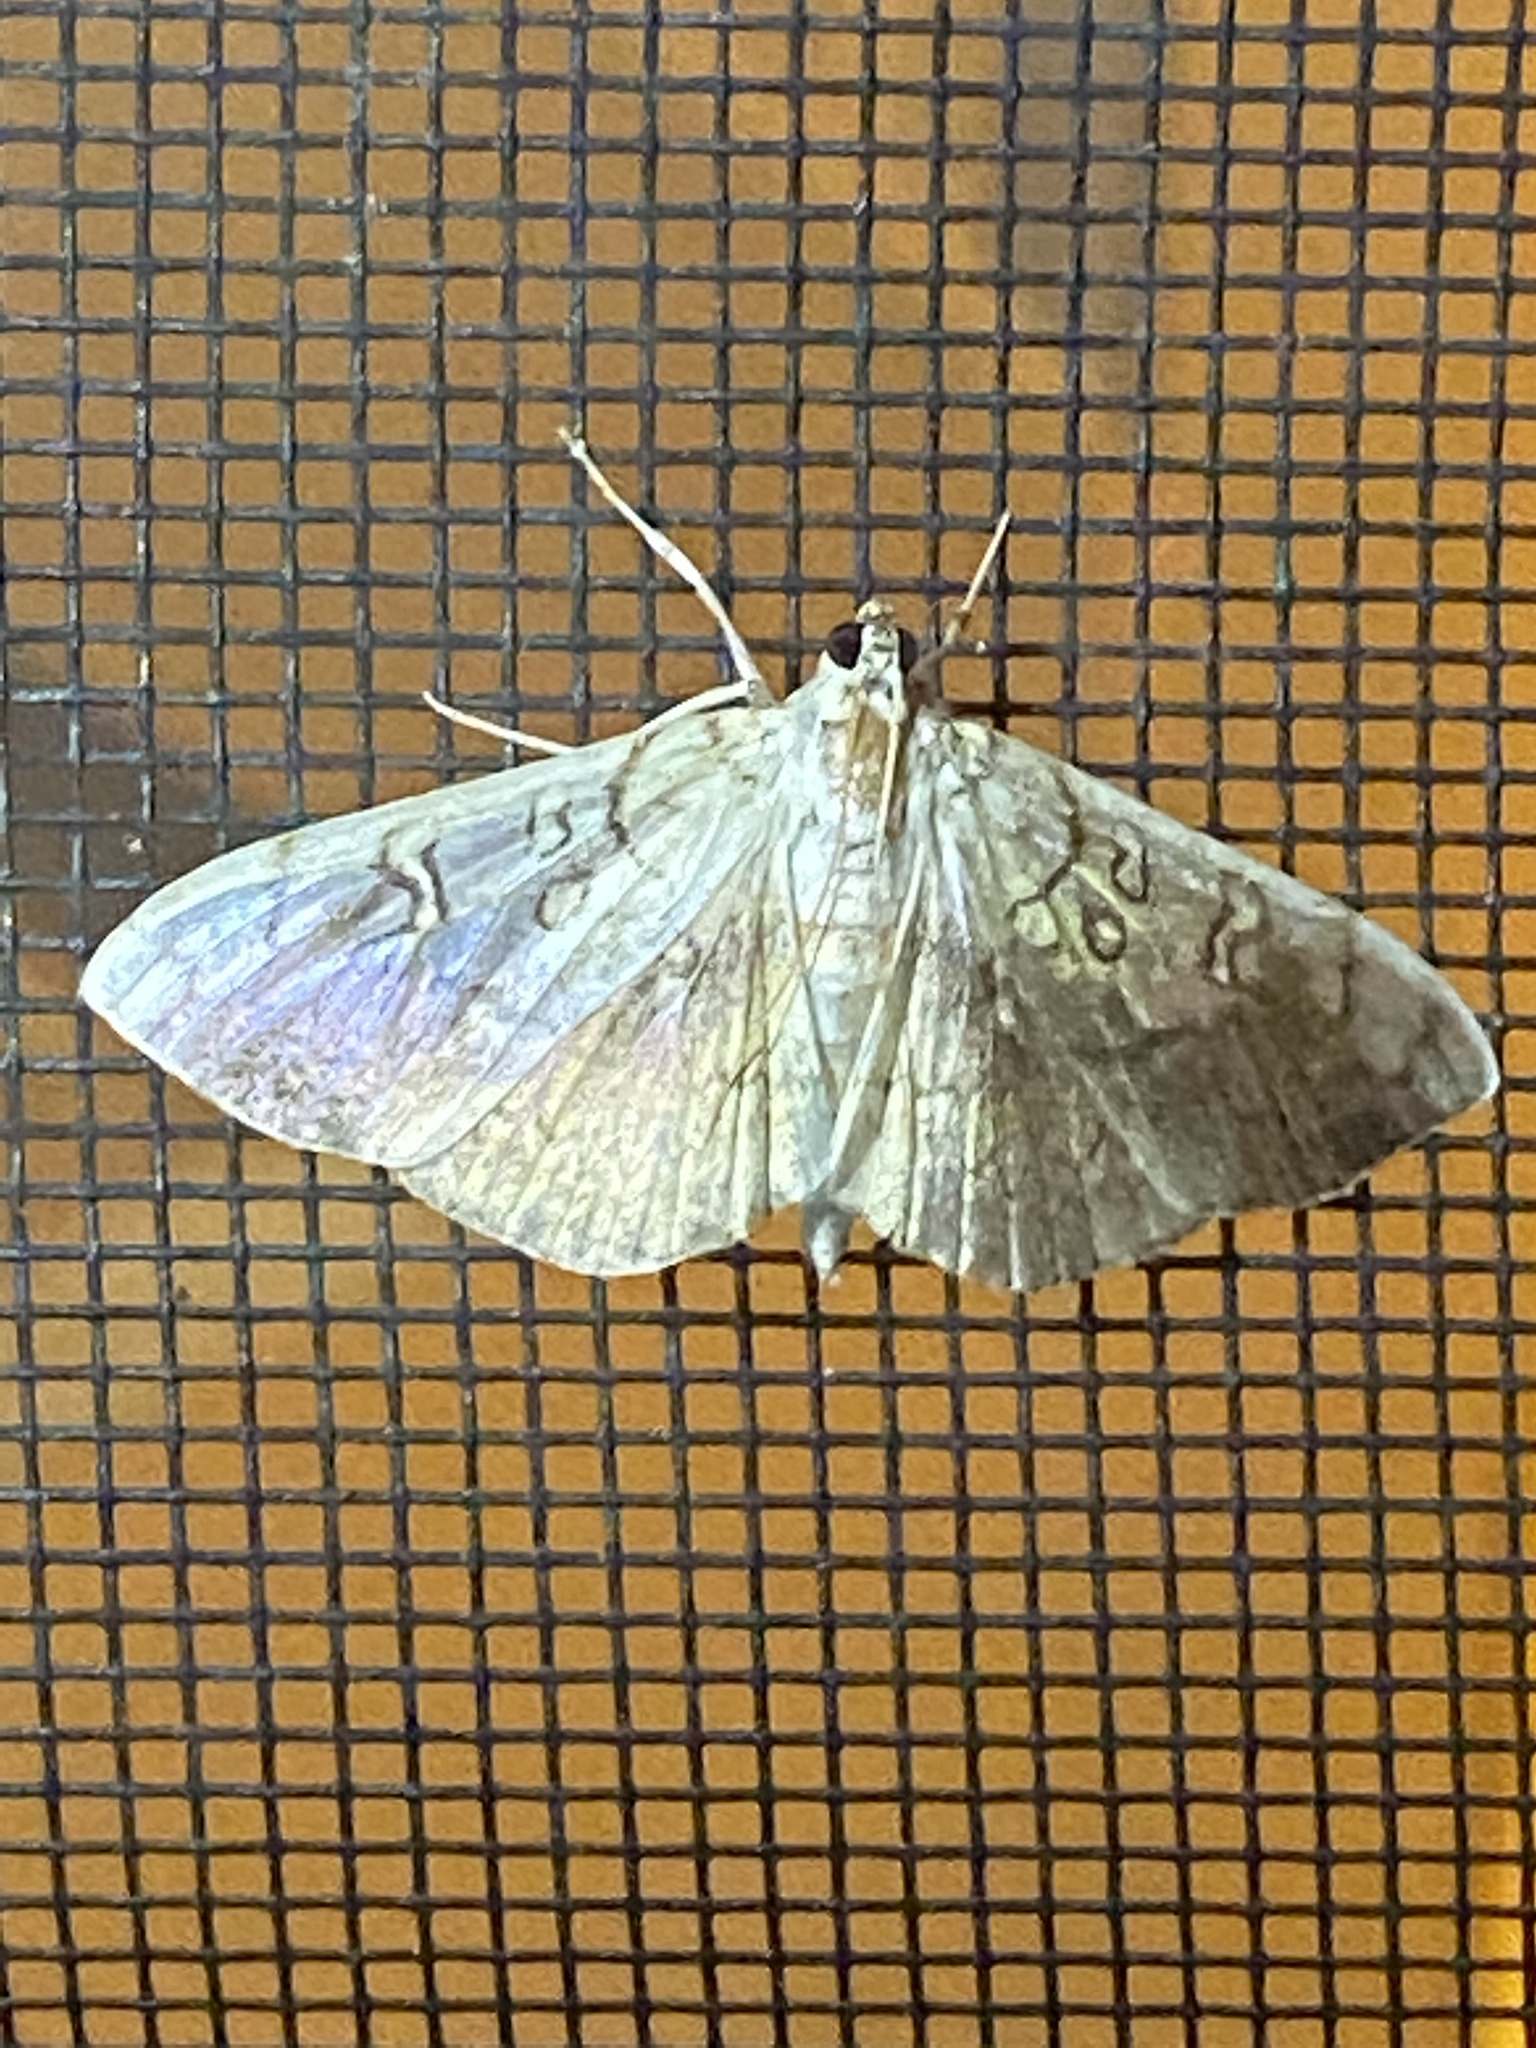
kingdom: Animalia
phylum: Arthropoda
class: Insecta
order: Lepidoptera
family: Crambidae
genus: Pantographa
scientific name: Pantographa limata
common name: Basswood leafroller moth
